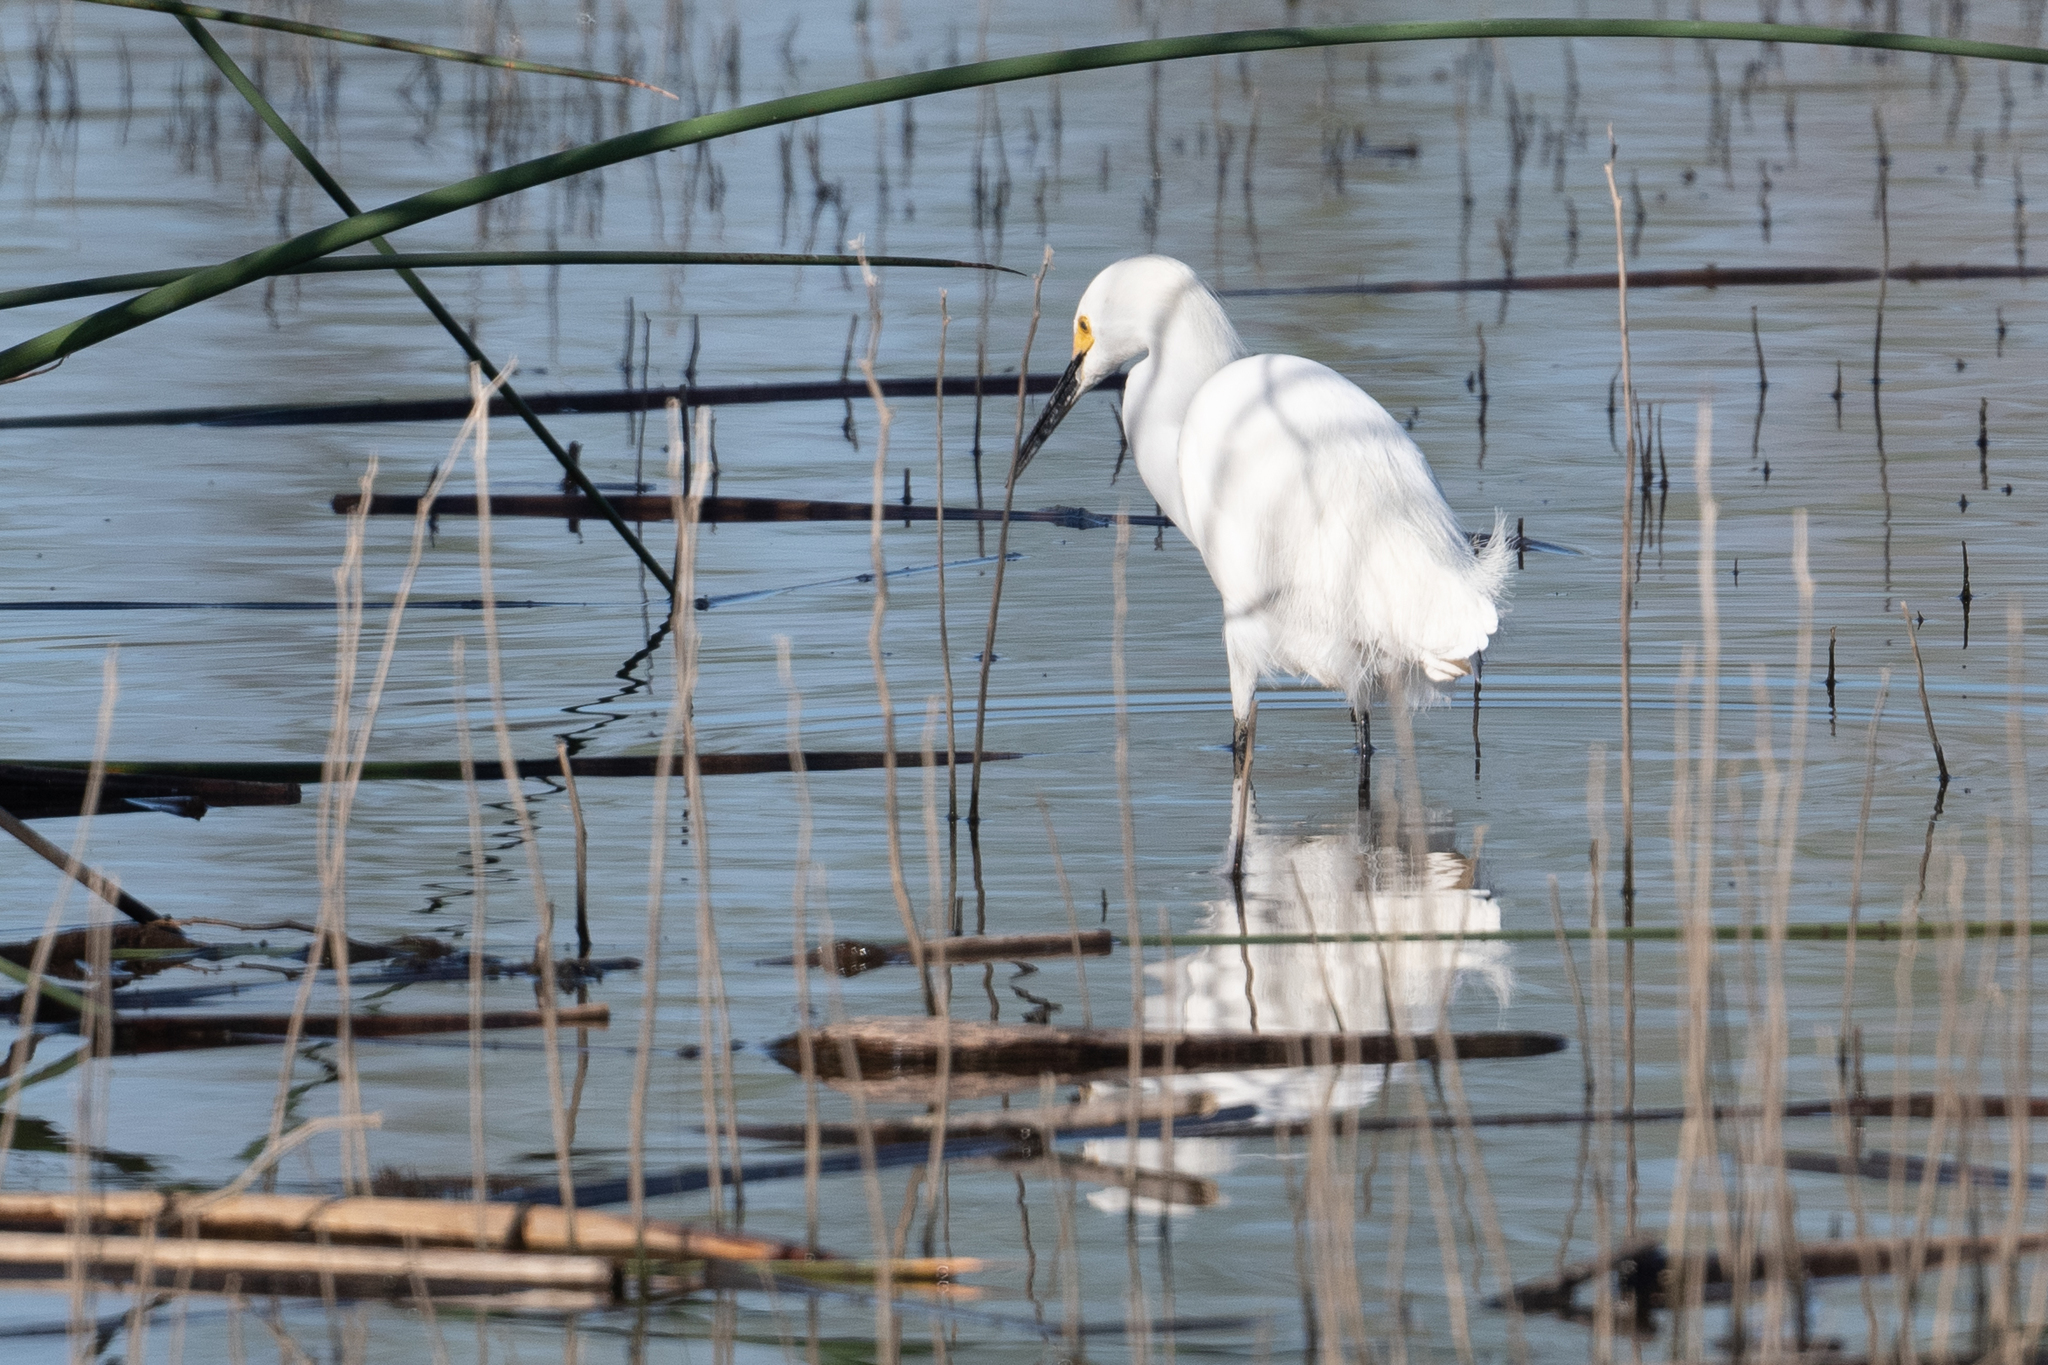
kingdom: Animalia
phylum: Chordata
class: Aves
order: Pelecaniformes
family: Ardeidae
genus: Egretta
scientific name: Egretta thula
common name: Snowy egret
